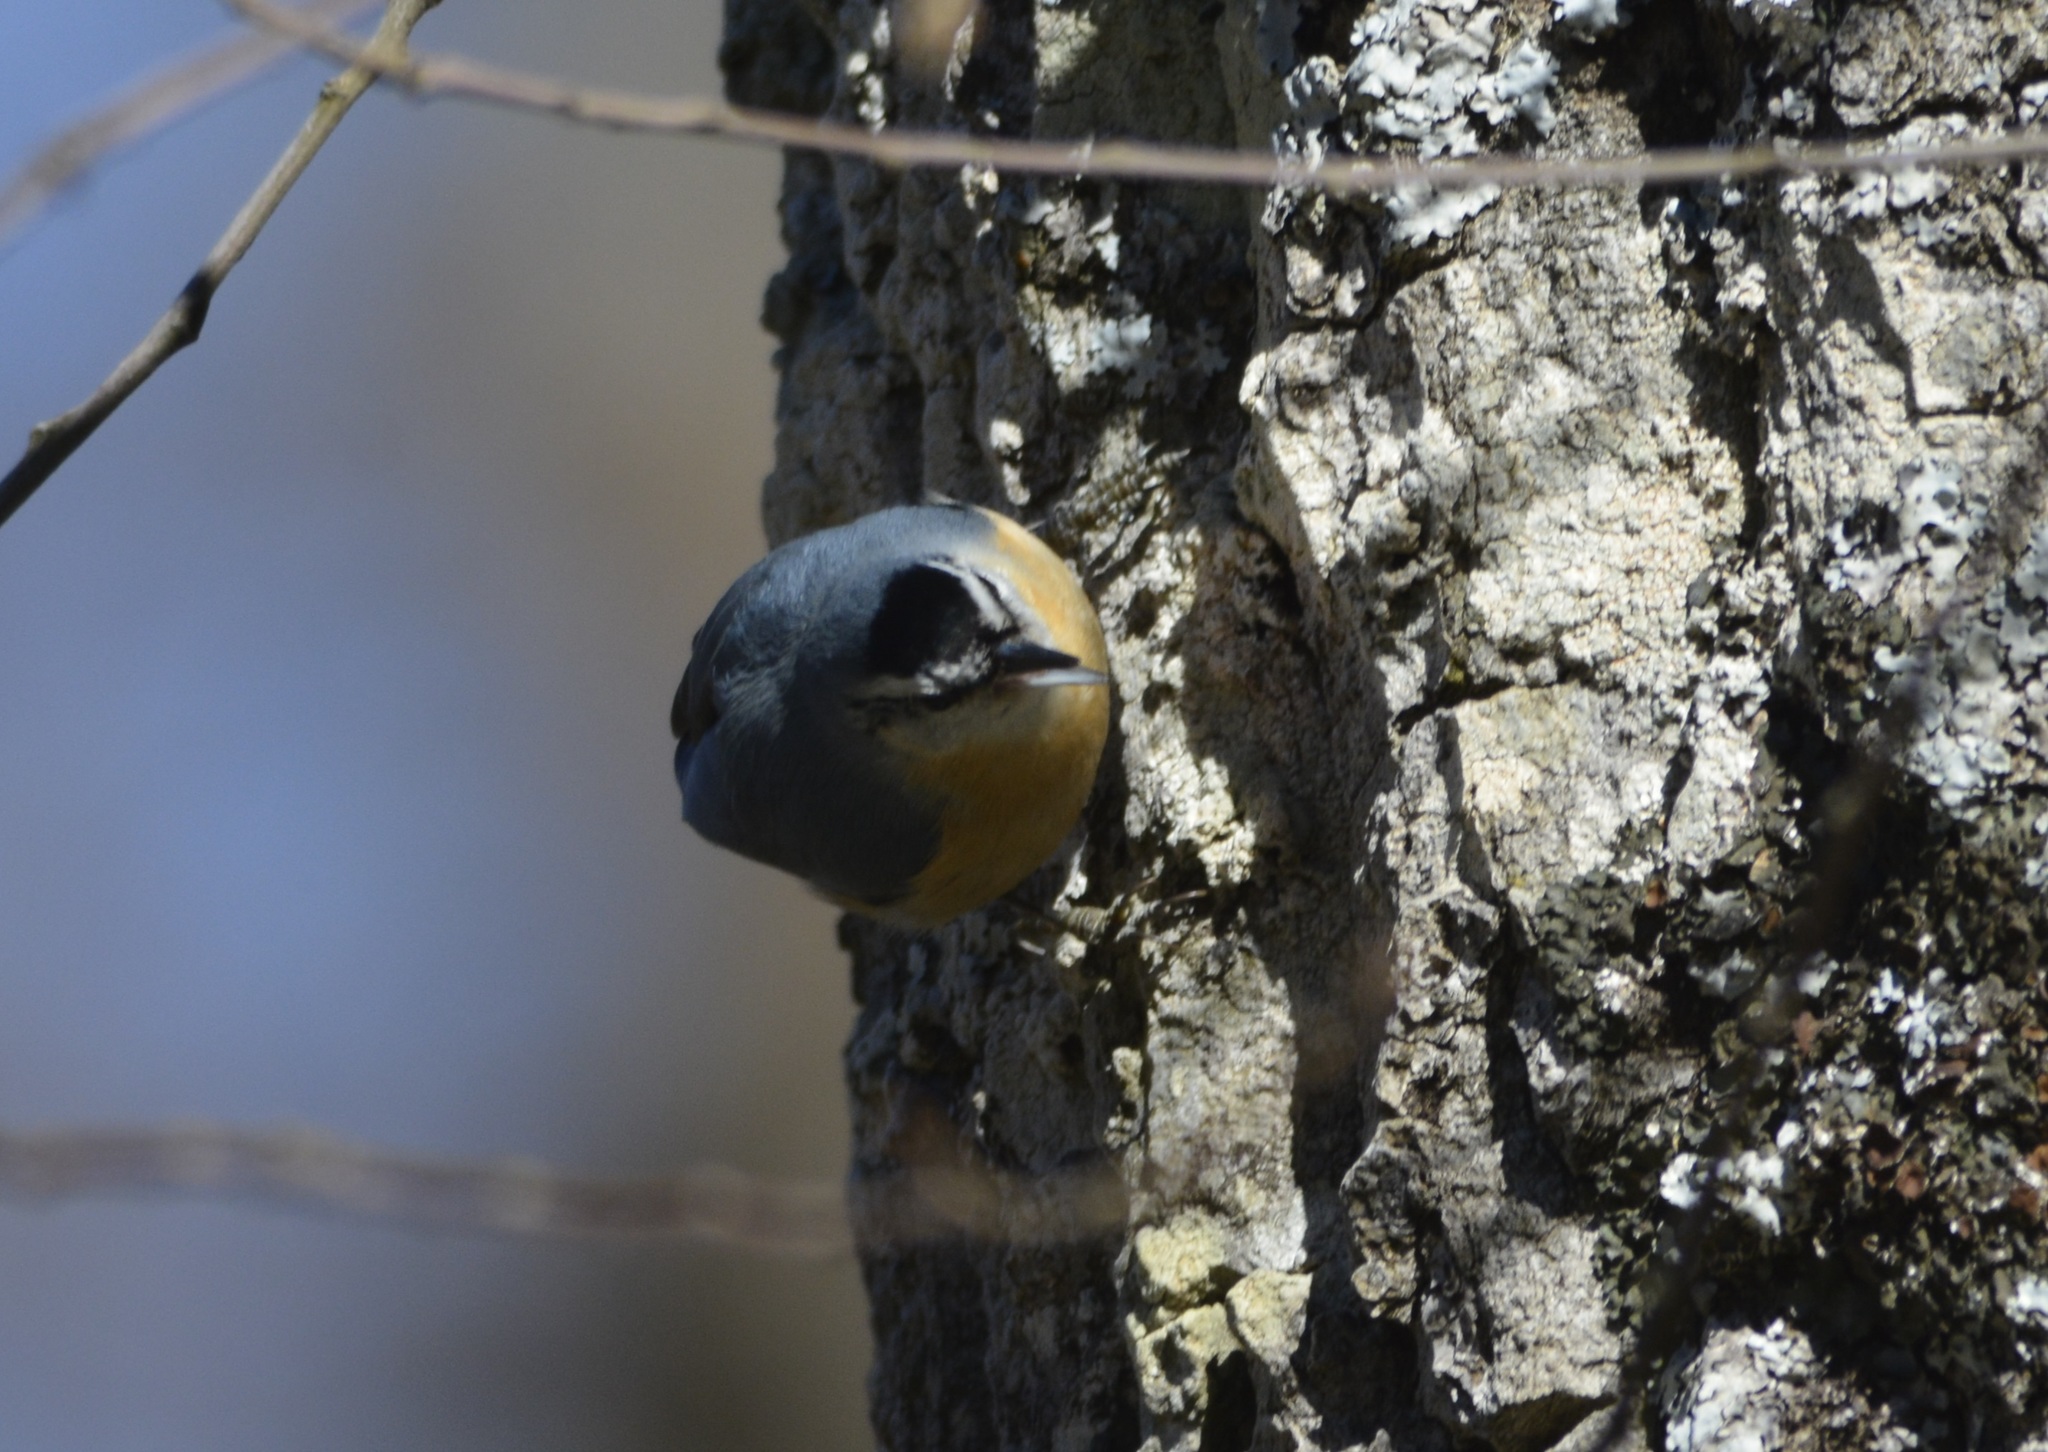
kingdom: Animalia
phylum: Chordata
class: Aves
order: Passeriformes
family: Sittidae
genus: Sitta
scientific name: Sitta ledanti
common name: Algerian nuthatch
